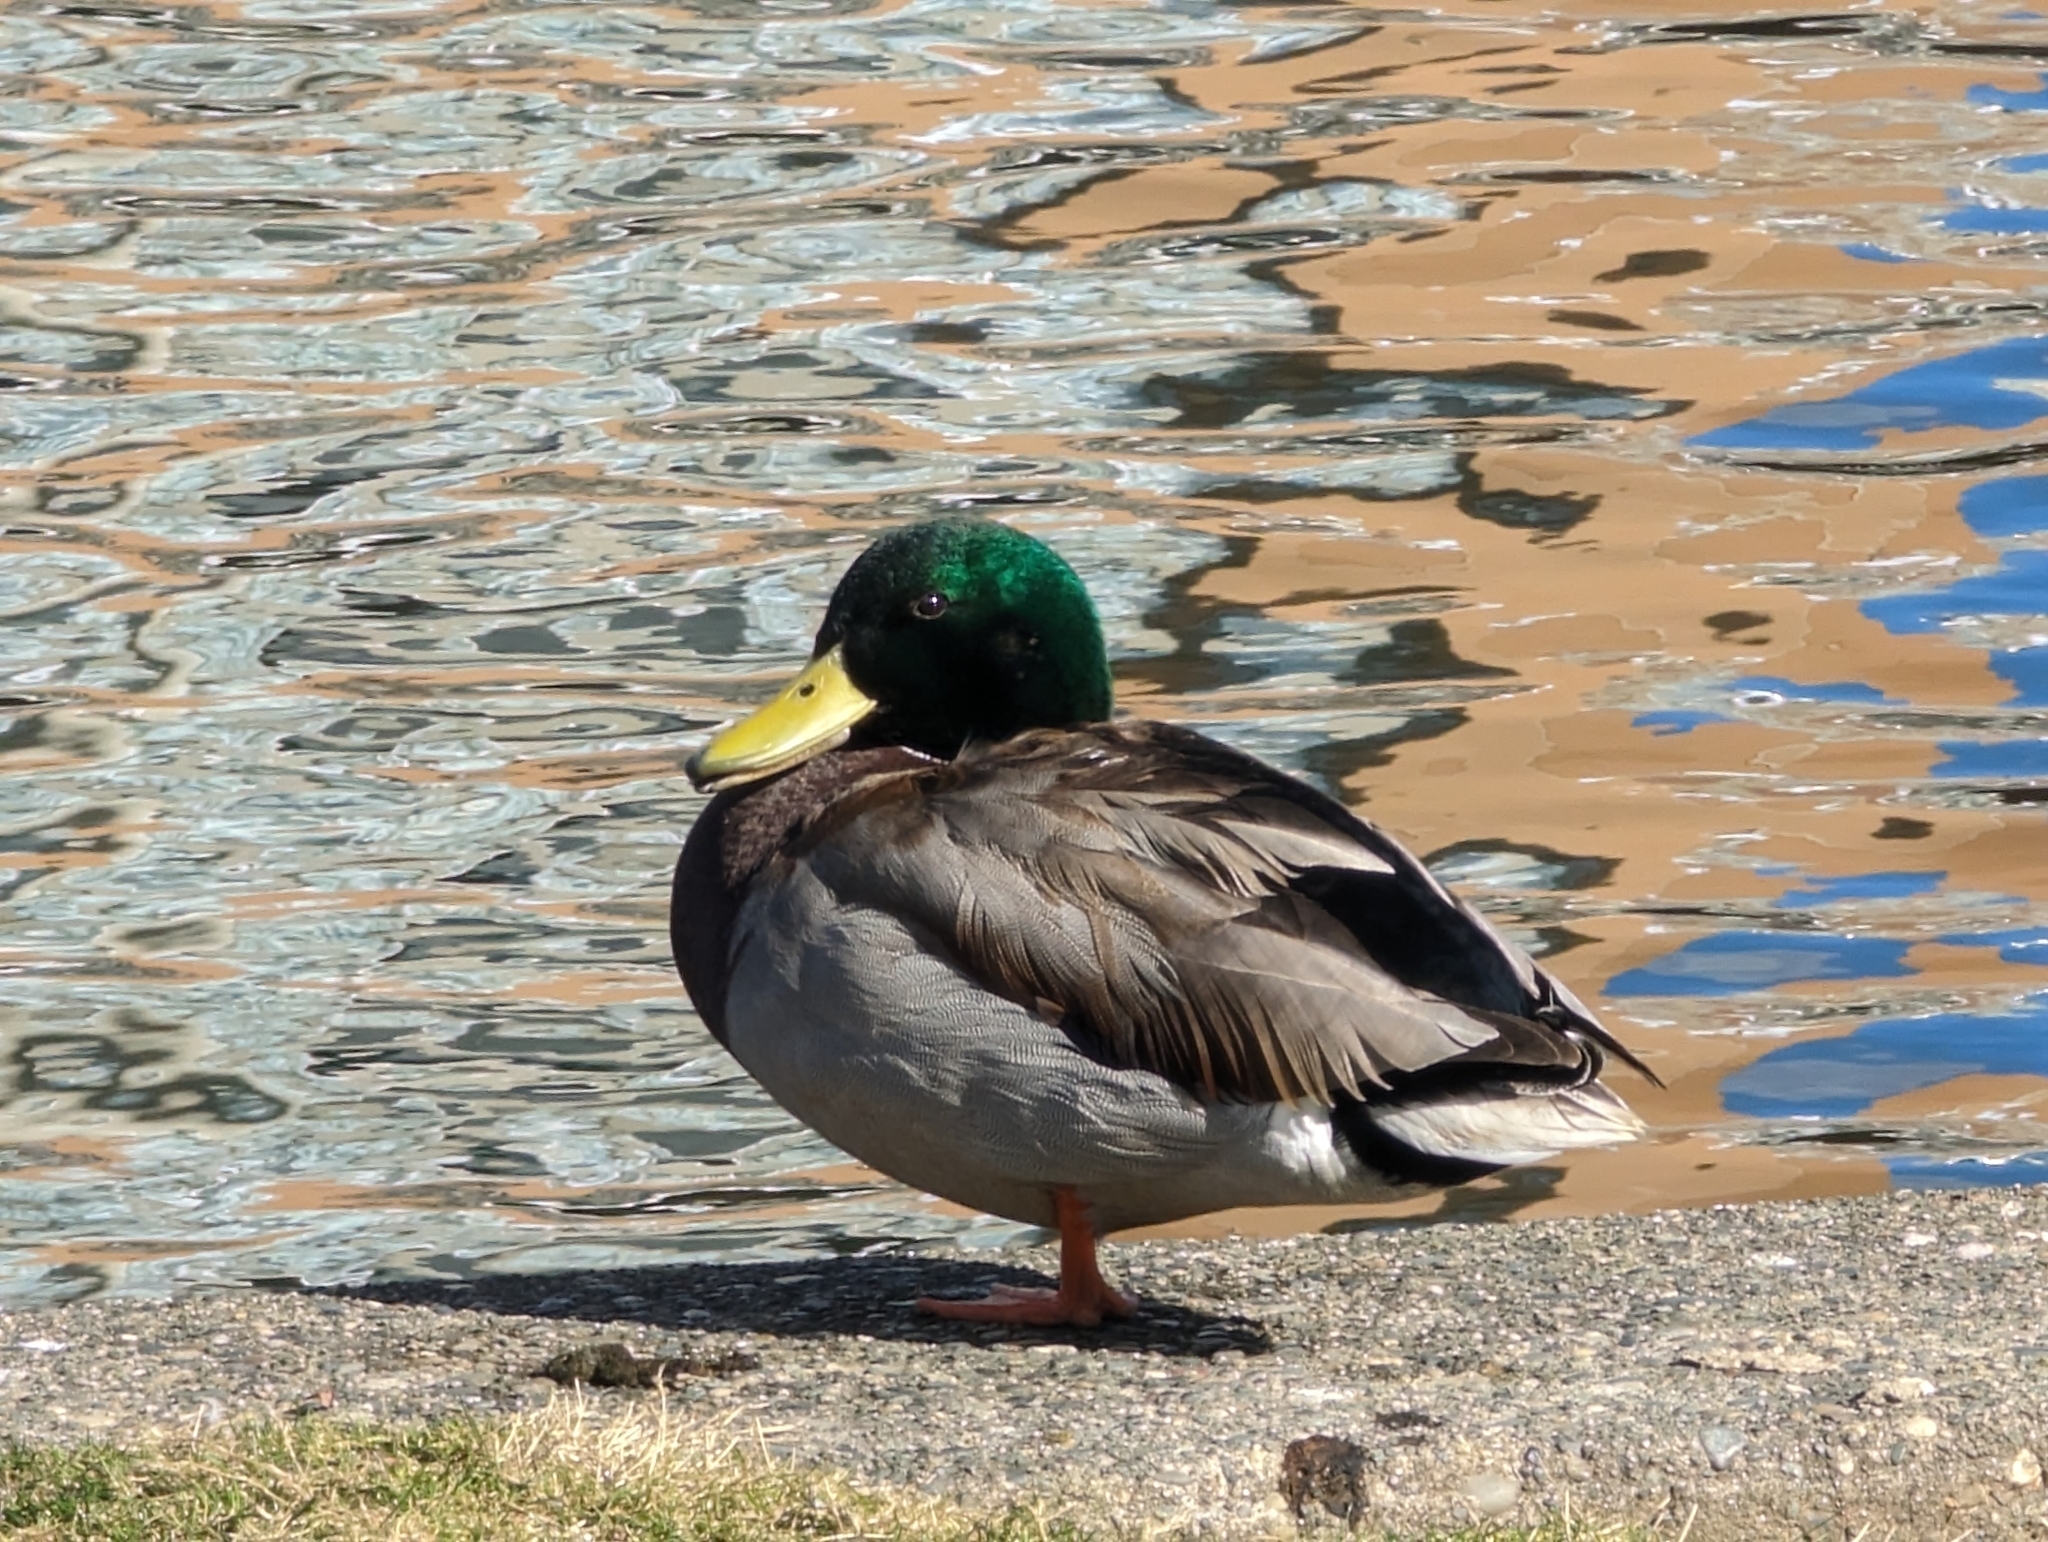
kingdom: Animalia
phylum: Chordata
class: Aves
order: Anseriformes
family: Anatidae
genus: Anas
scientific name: Anas platyrhynchos
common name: Mallard
